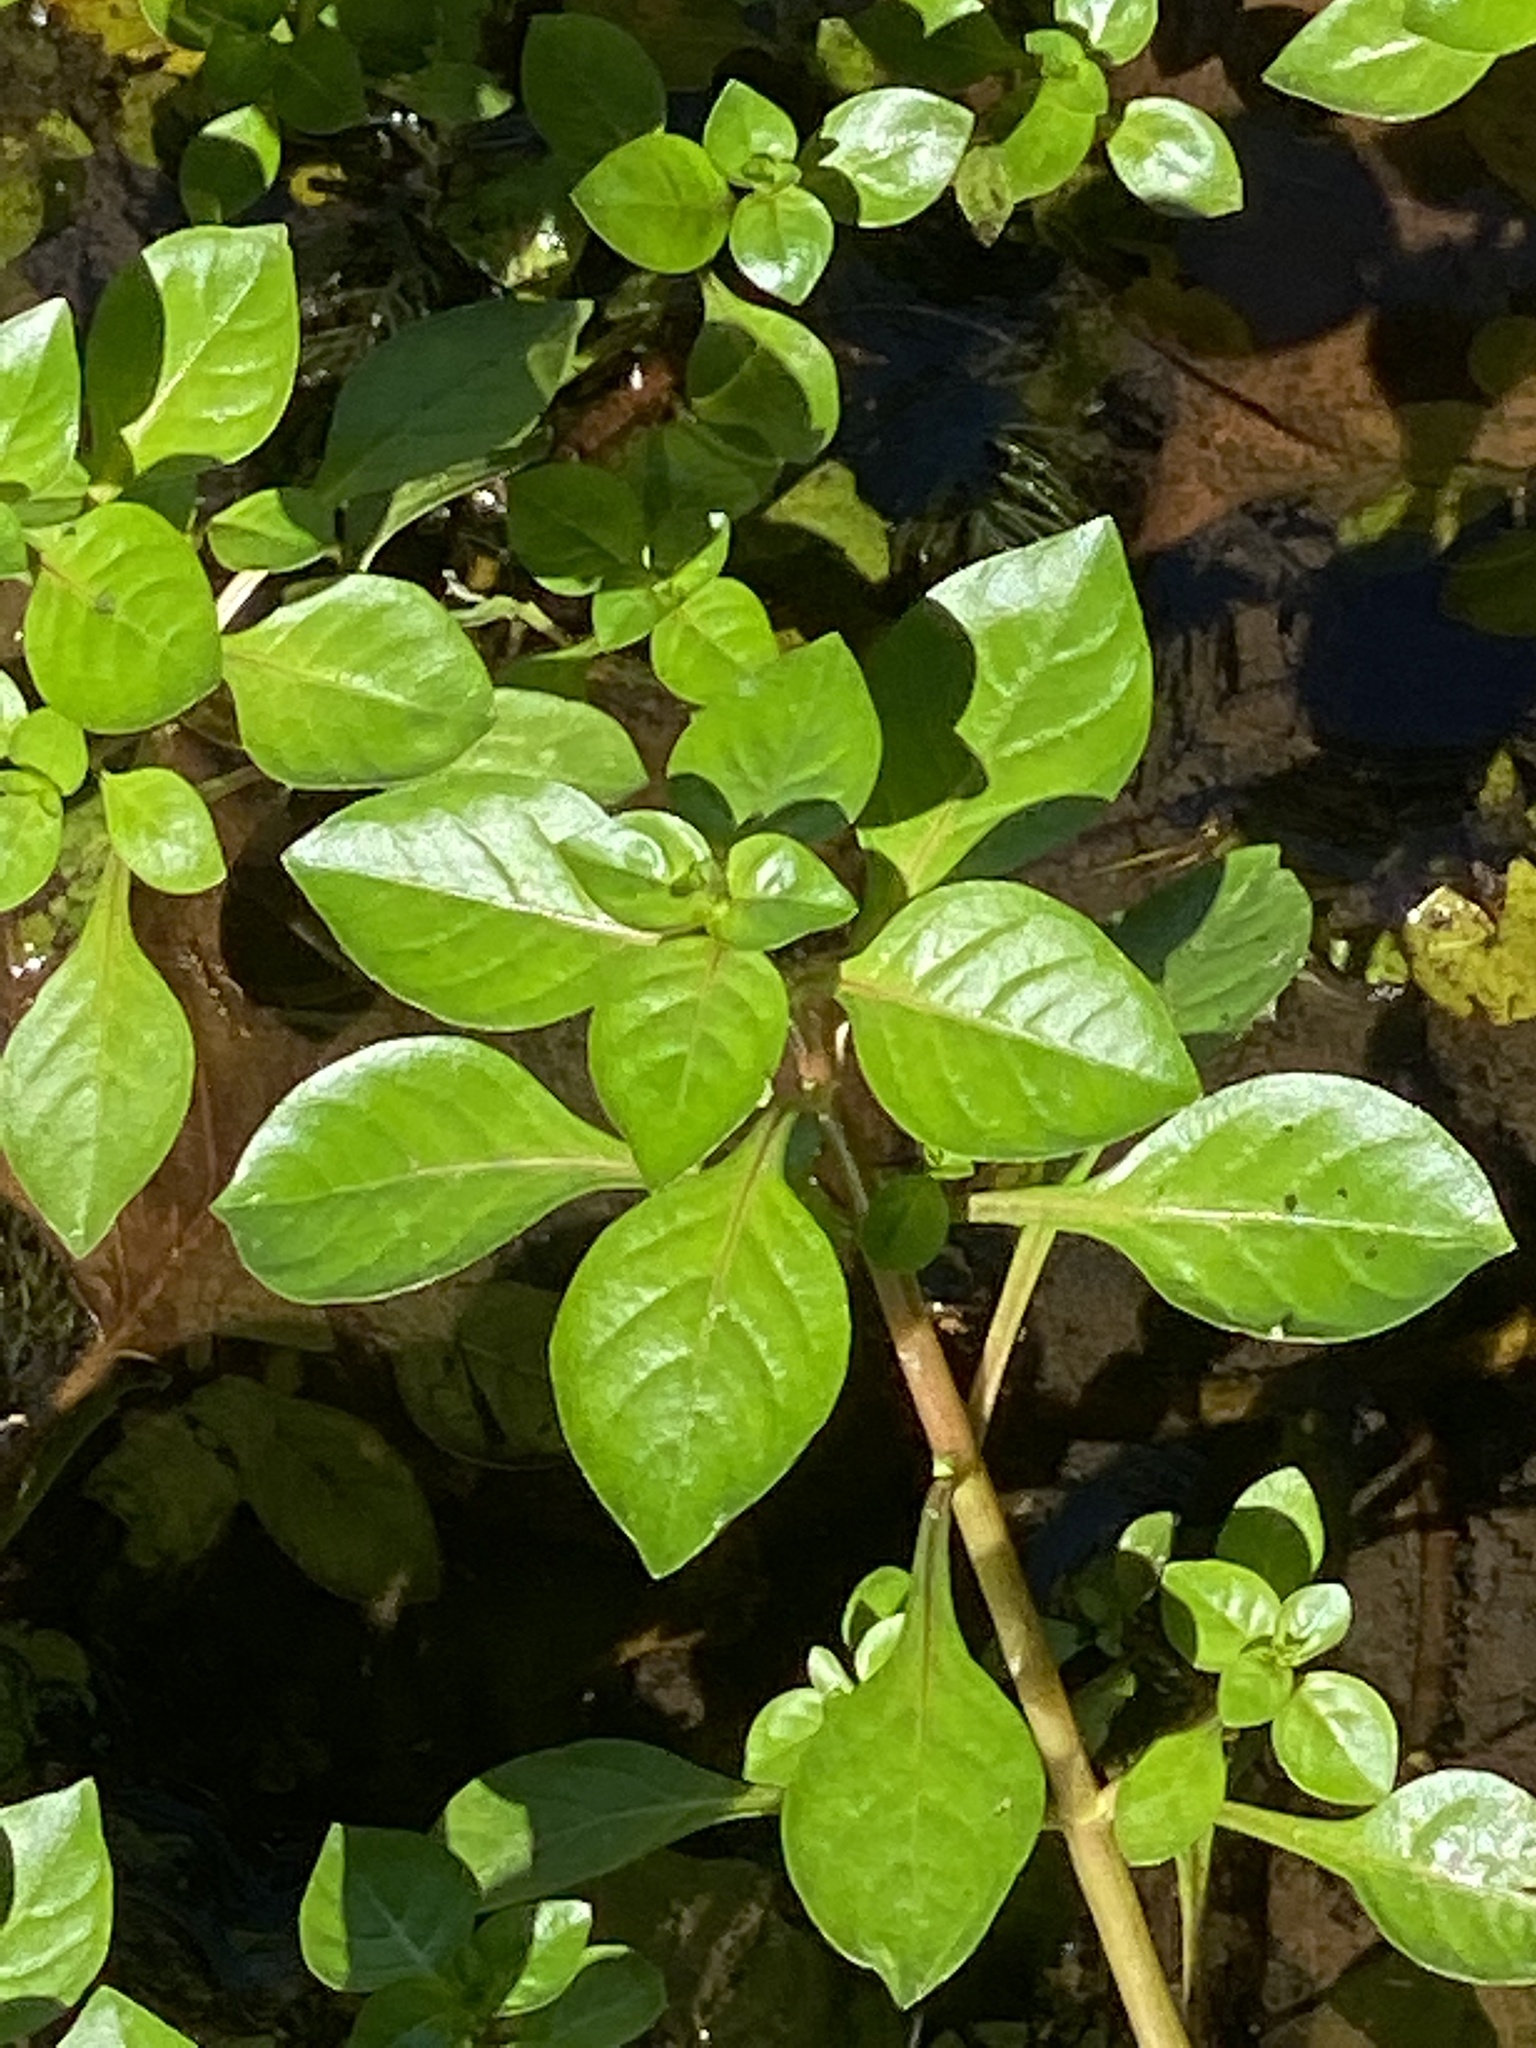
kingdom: Plantae
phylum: Tracheophyta
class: Magnoliopsida
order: Myrtales
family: Onagraceae
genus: Ludwigia
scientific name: Ludwigia palustris
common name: Hampshire-purslane
